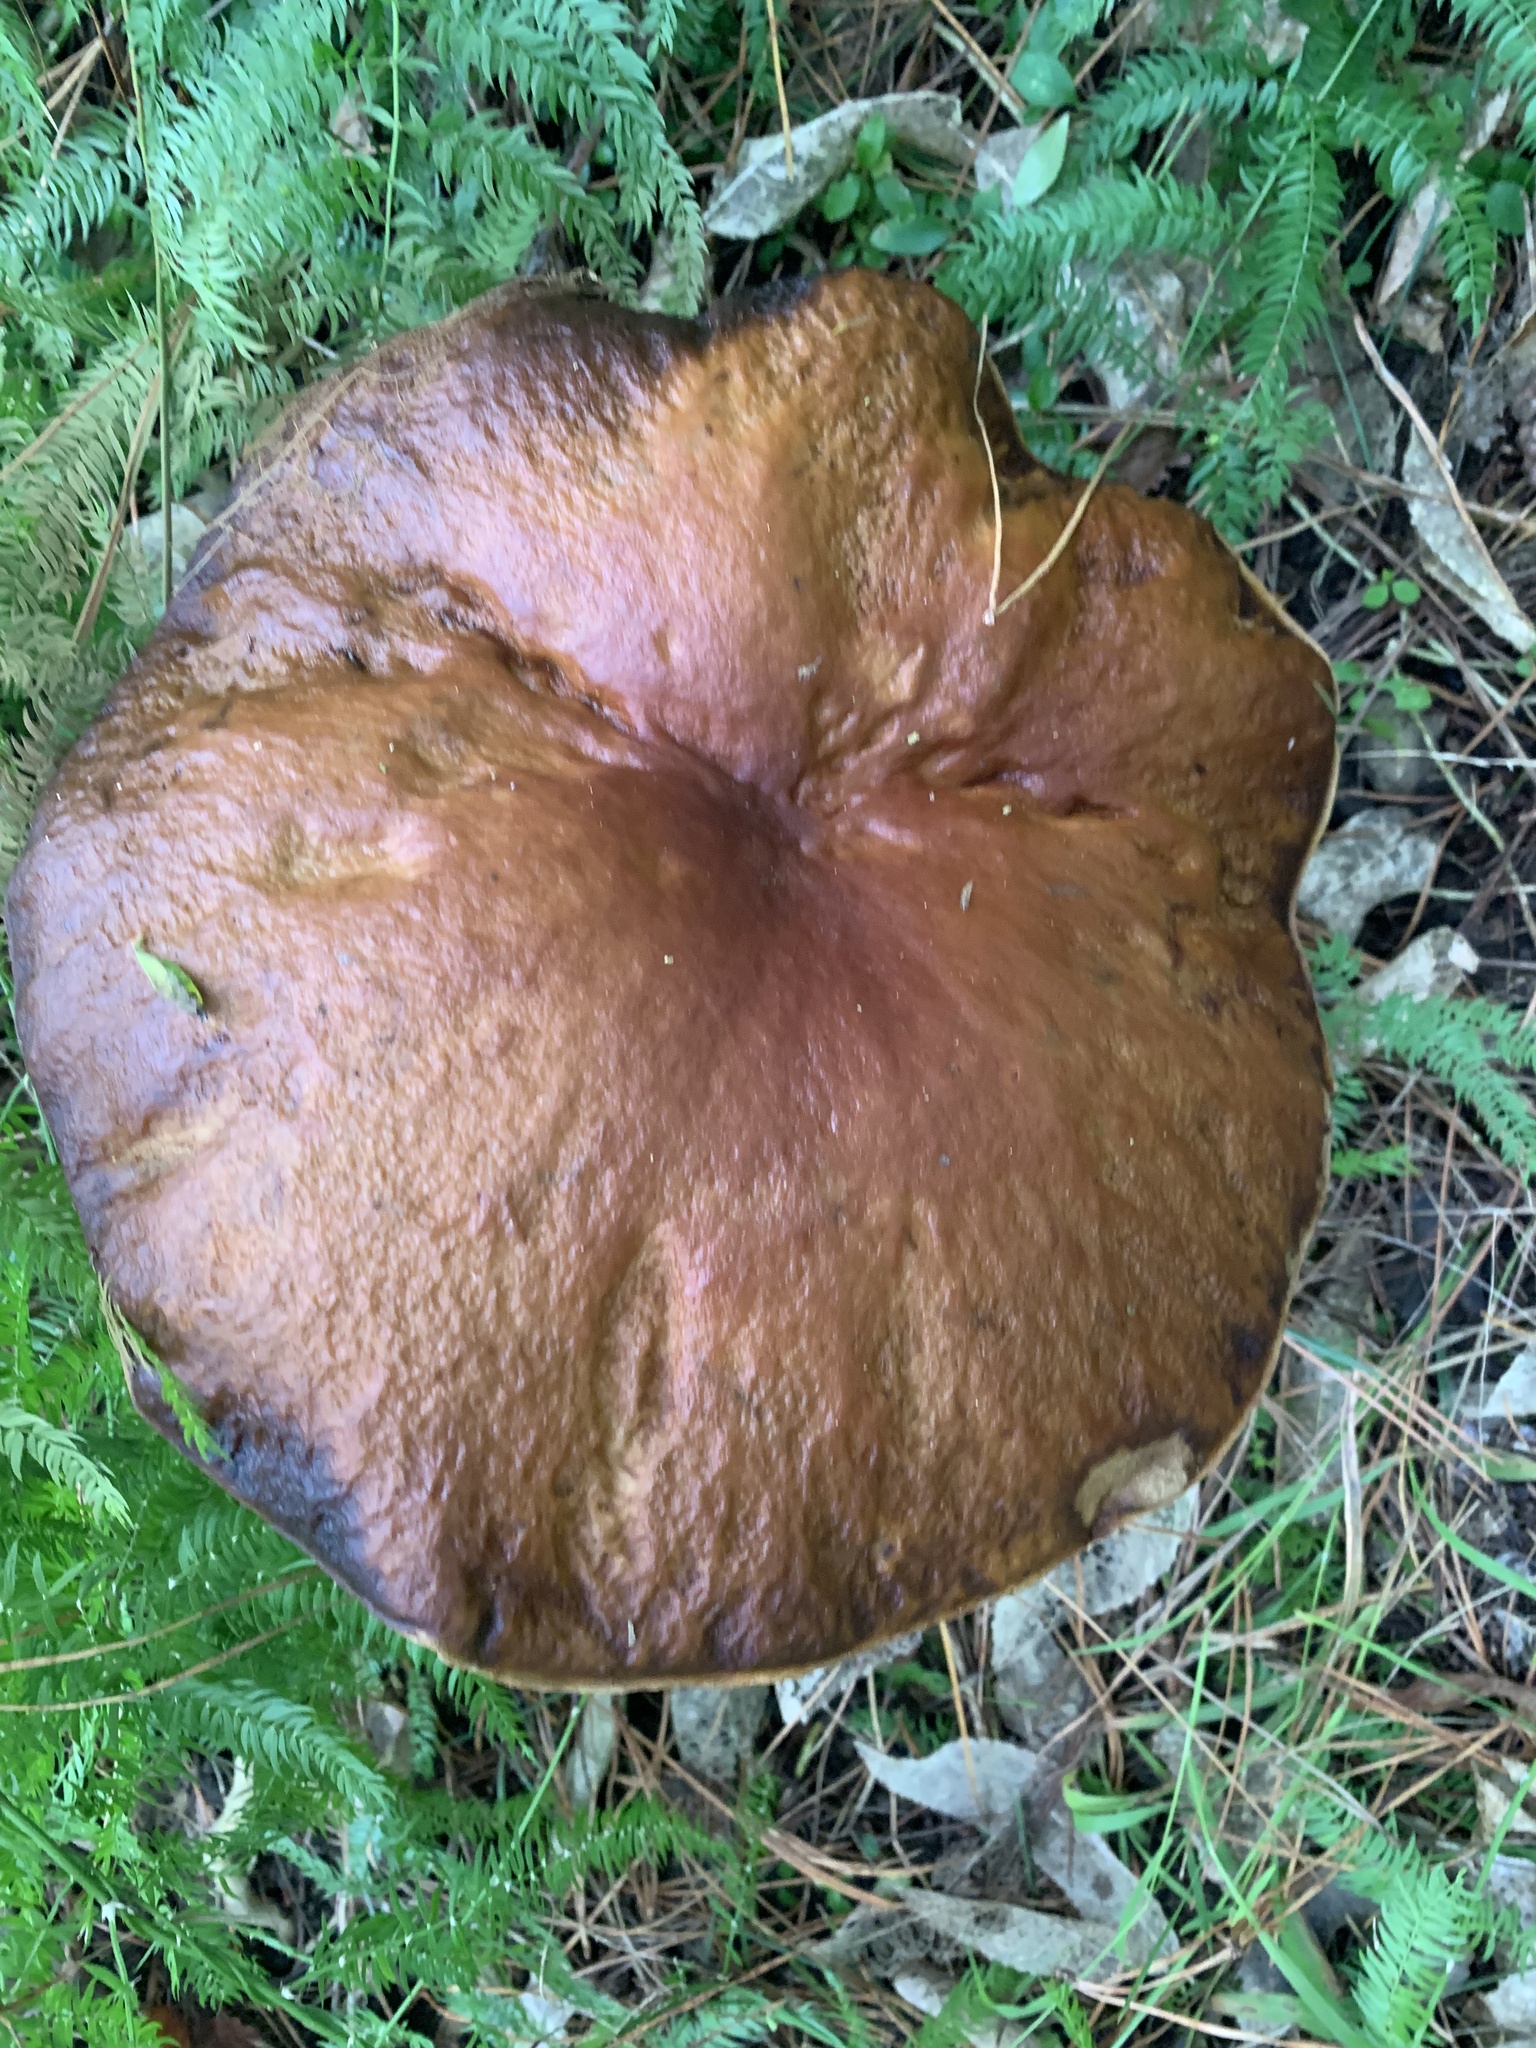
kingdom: Fungi
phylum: Basidiomycota
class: Agaricomycetes
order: Boletales
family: Boletaceae
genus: Boletus
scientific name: Boletus edulis
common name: Cep
